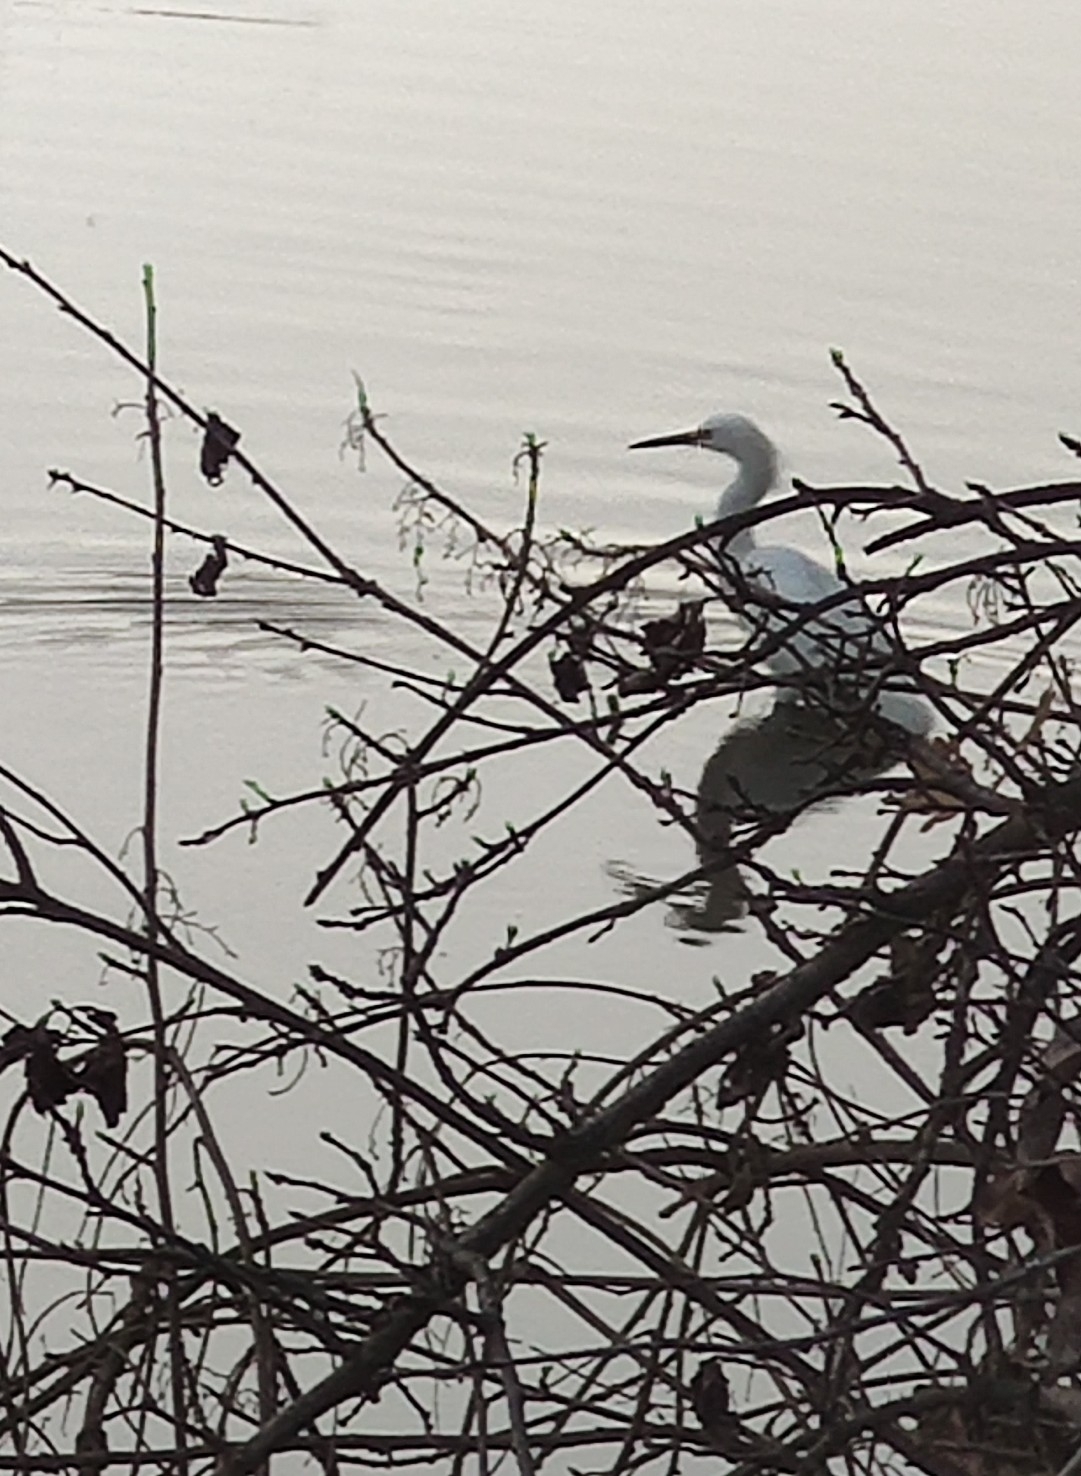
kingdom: Animalia
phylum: Chordata
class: Aves
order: Pelecaniformes
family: Ardeidae
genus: Egretta
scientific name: Egretta thula
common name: Snowy egret
